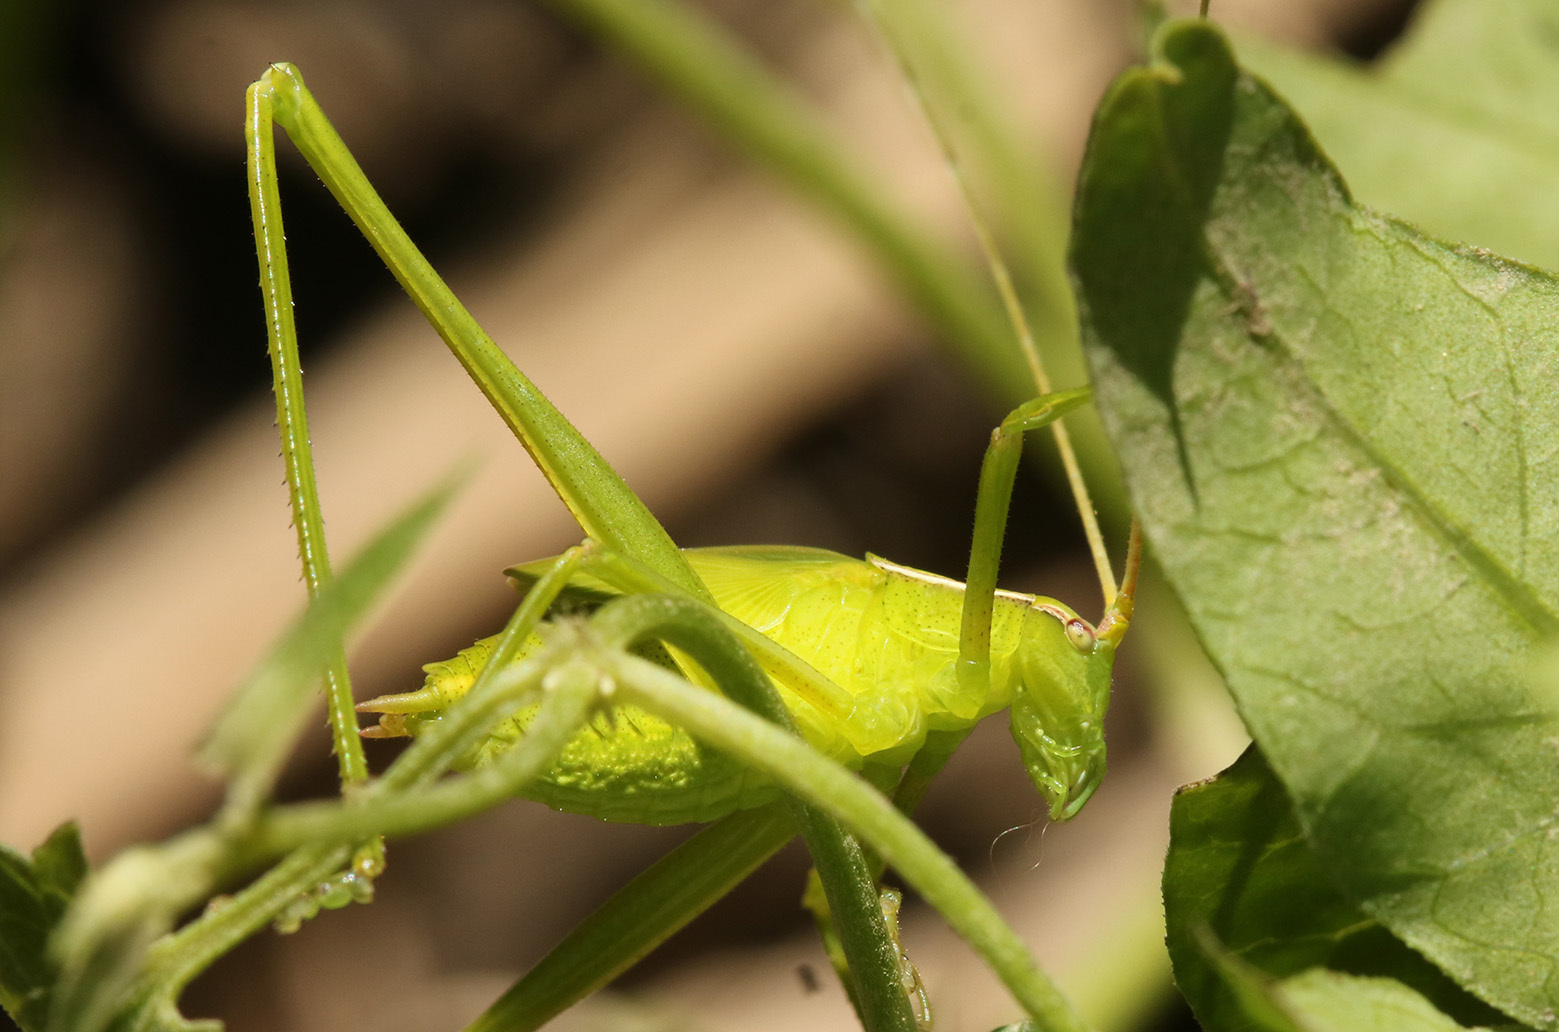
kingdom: Animalia
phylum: Arthropoda
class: Insecta
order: Orthoptera
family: Tettigoniidae
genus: Hyperophora
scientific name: Hyperophora major
